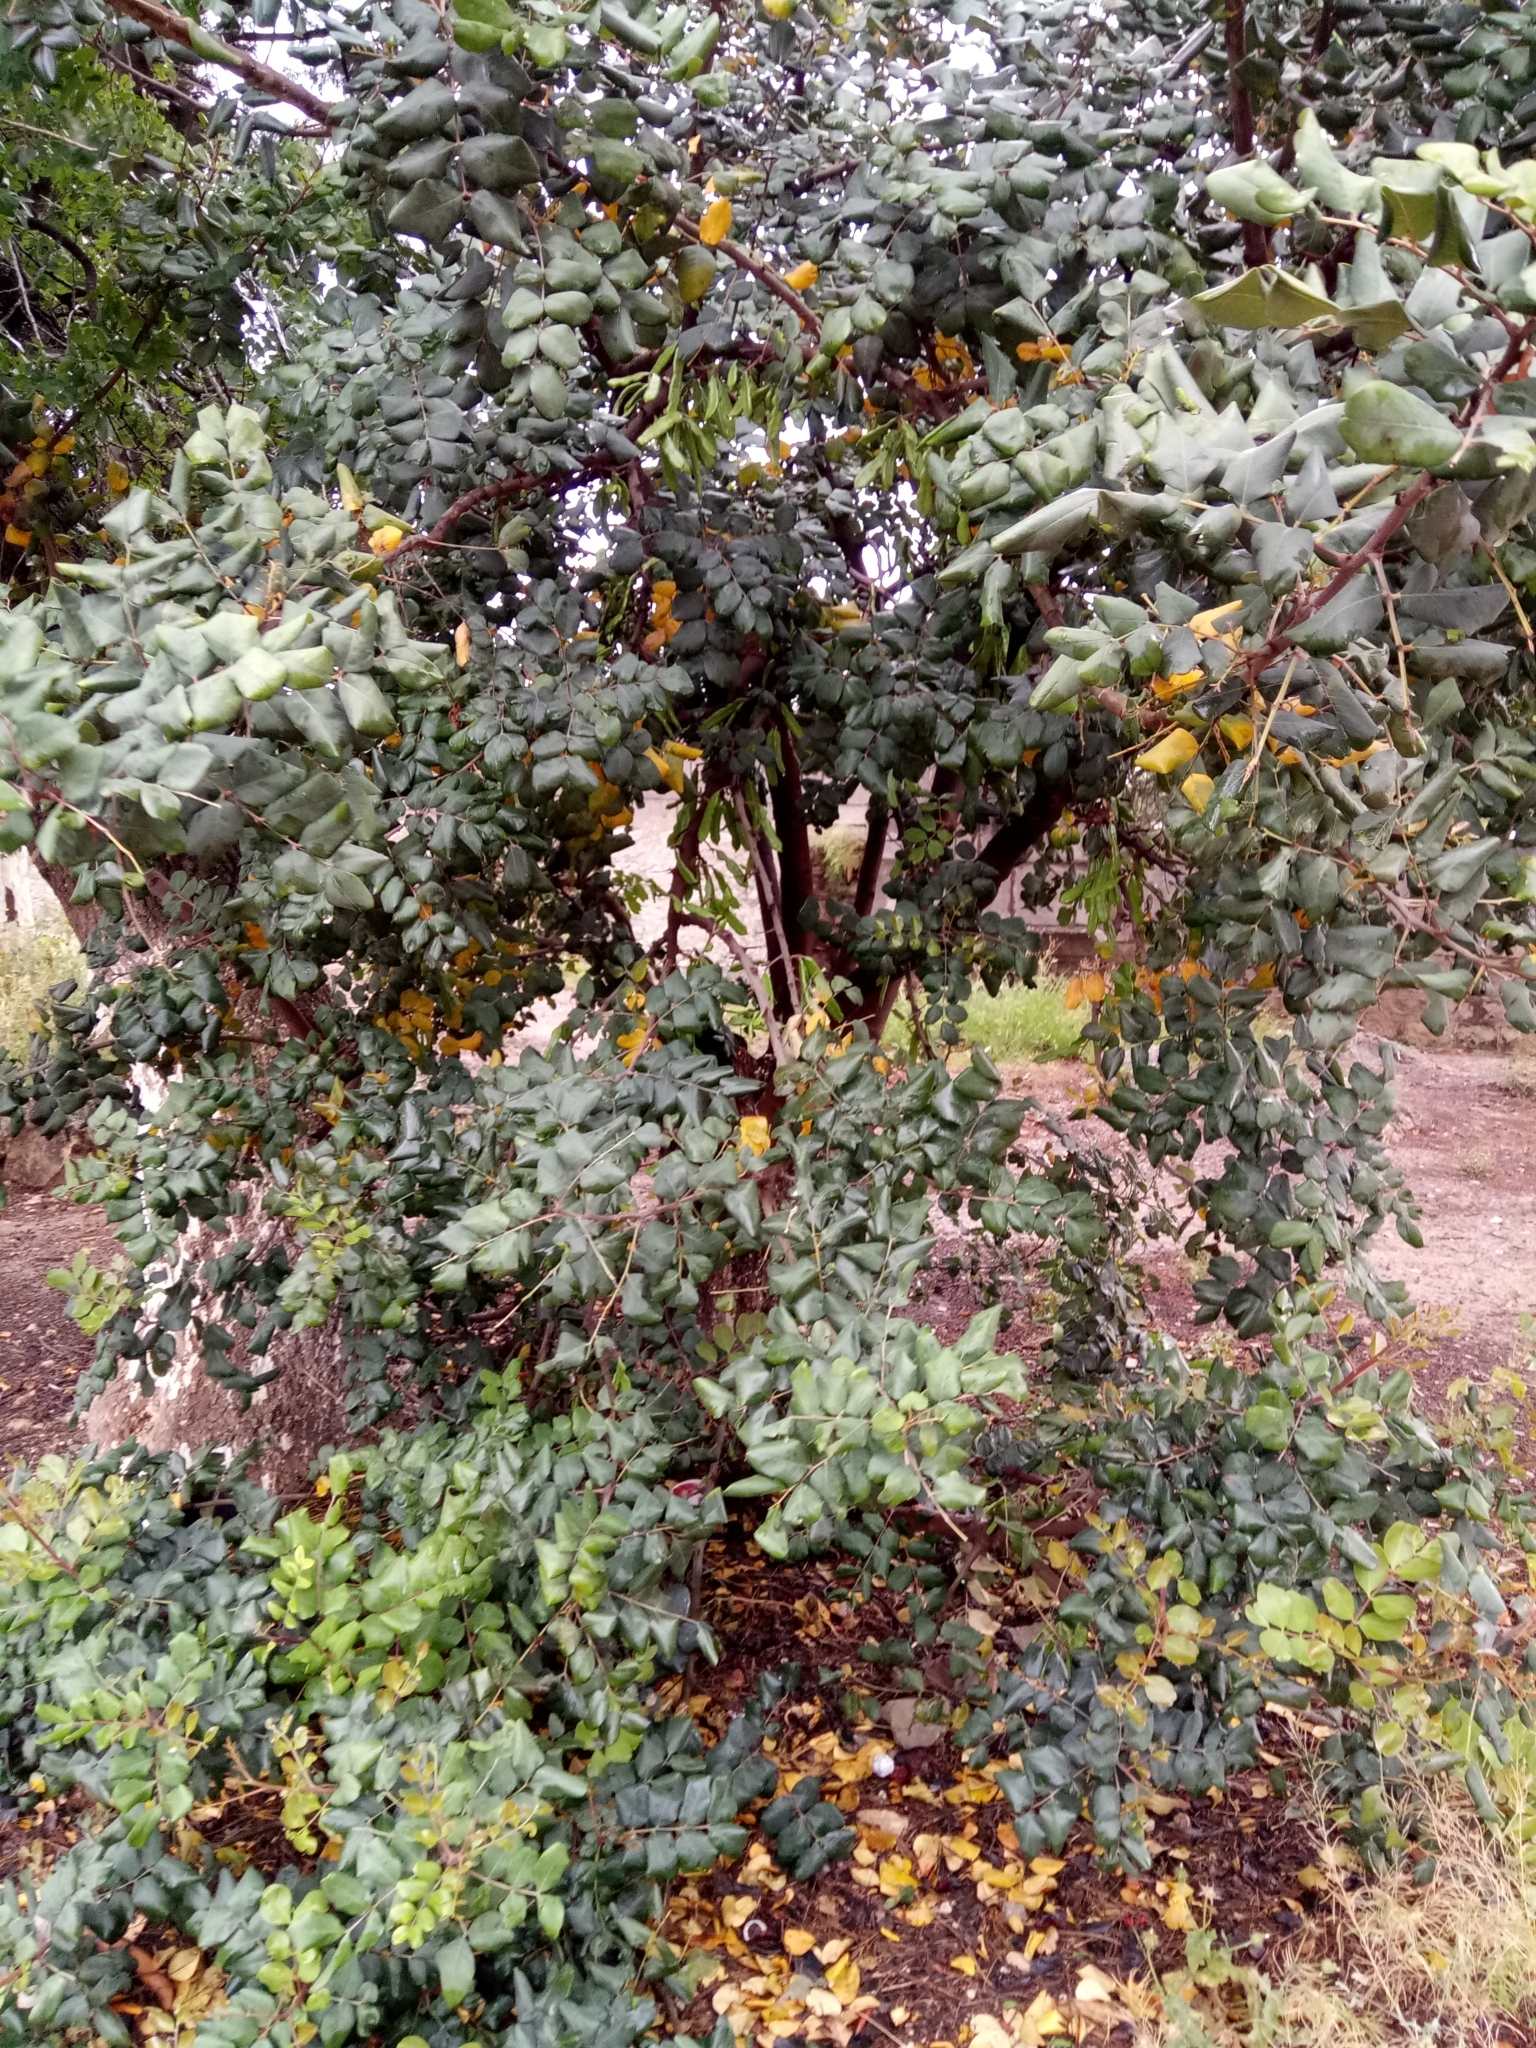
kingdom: Plantae
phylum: Tracheophyta
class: Magnoliopsida
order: Fabales
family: Fabaceae
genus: Ceratonia
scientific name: Ceratonia siliqua
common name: Carob
